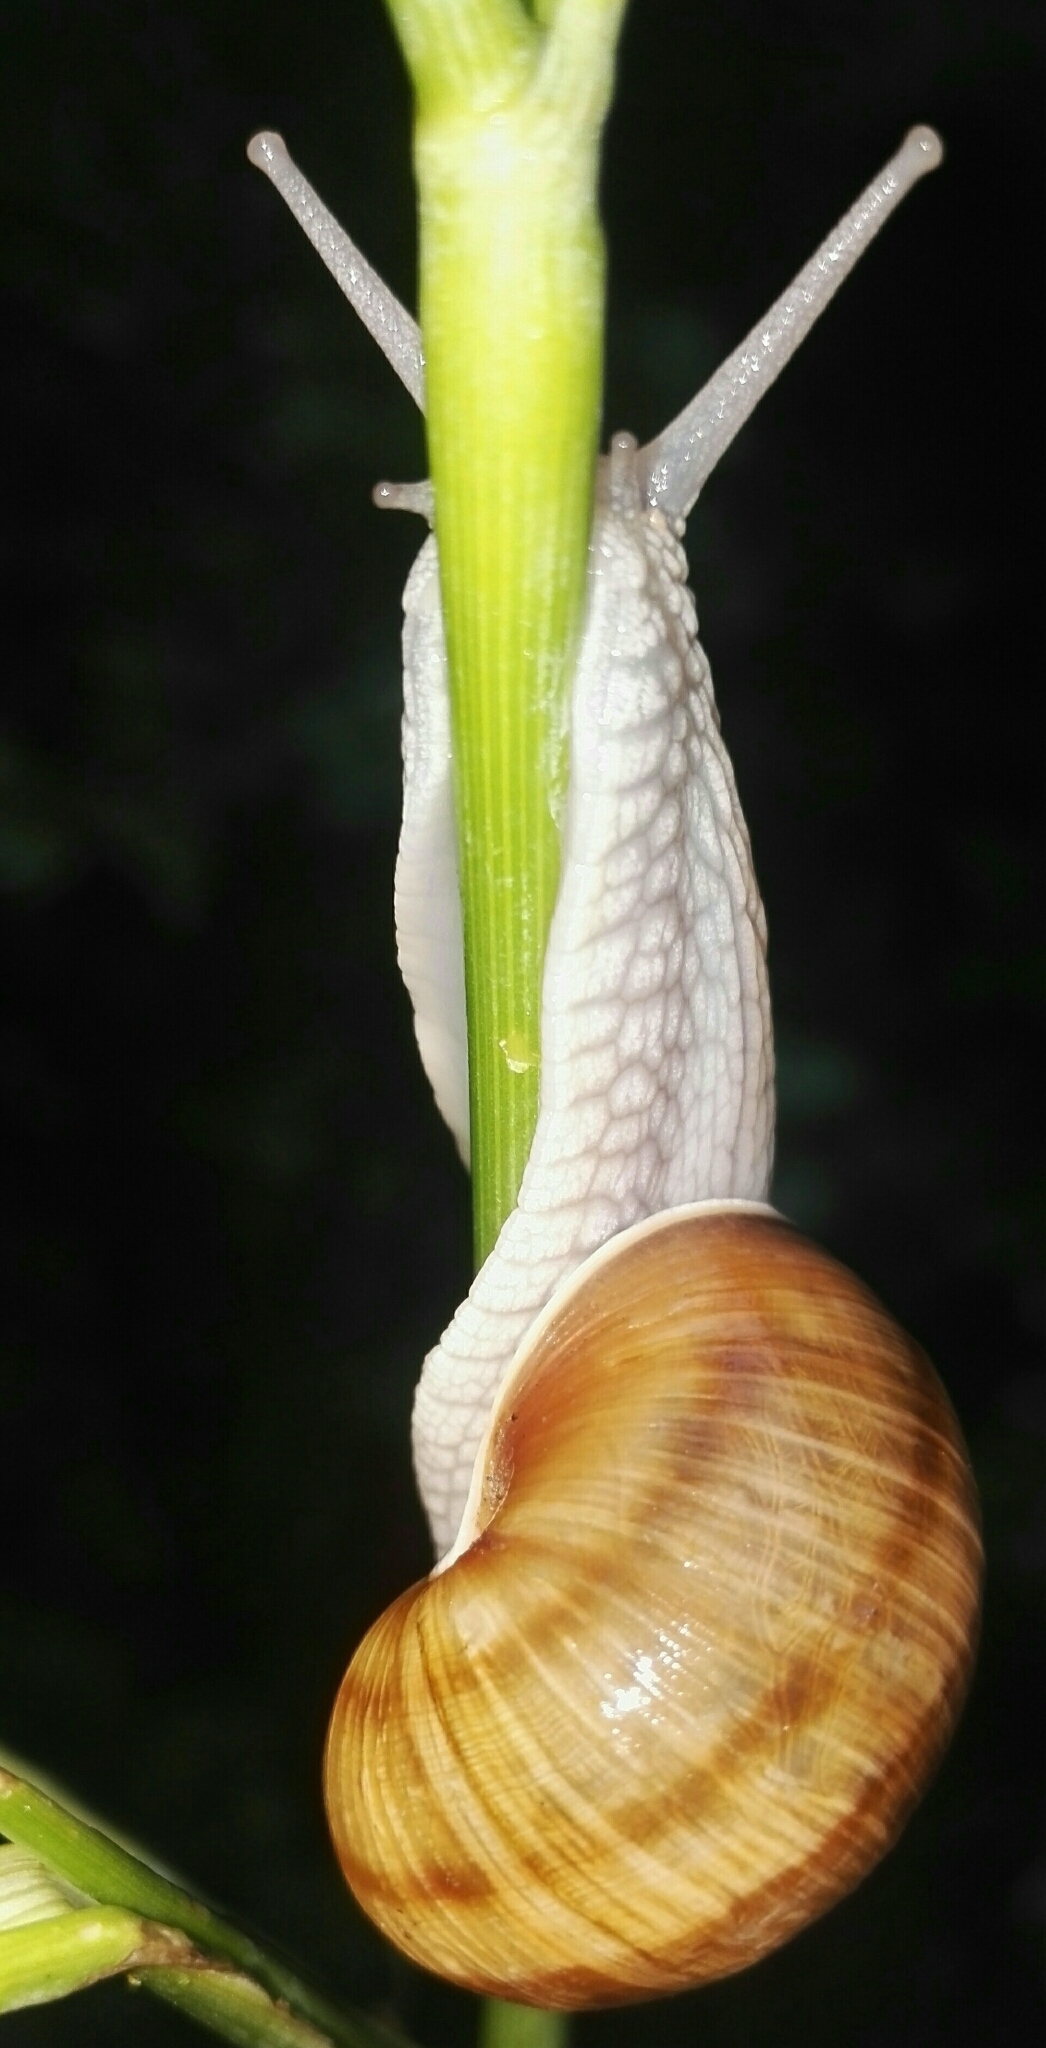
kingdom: Animalia
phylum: Mollusca
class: Gastropoda
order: Stylommatophora
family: Helicidae
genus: Helix
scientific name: Helix pomatia
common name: Roman snail
